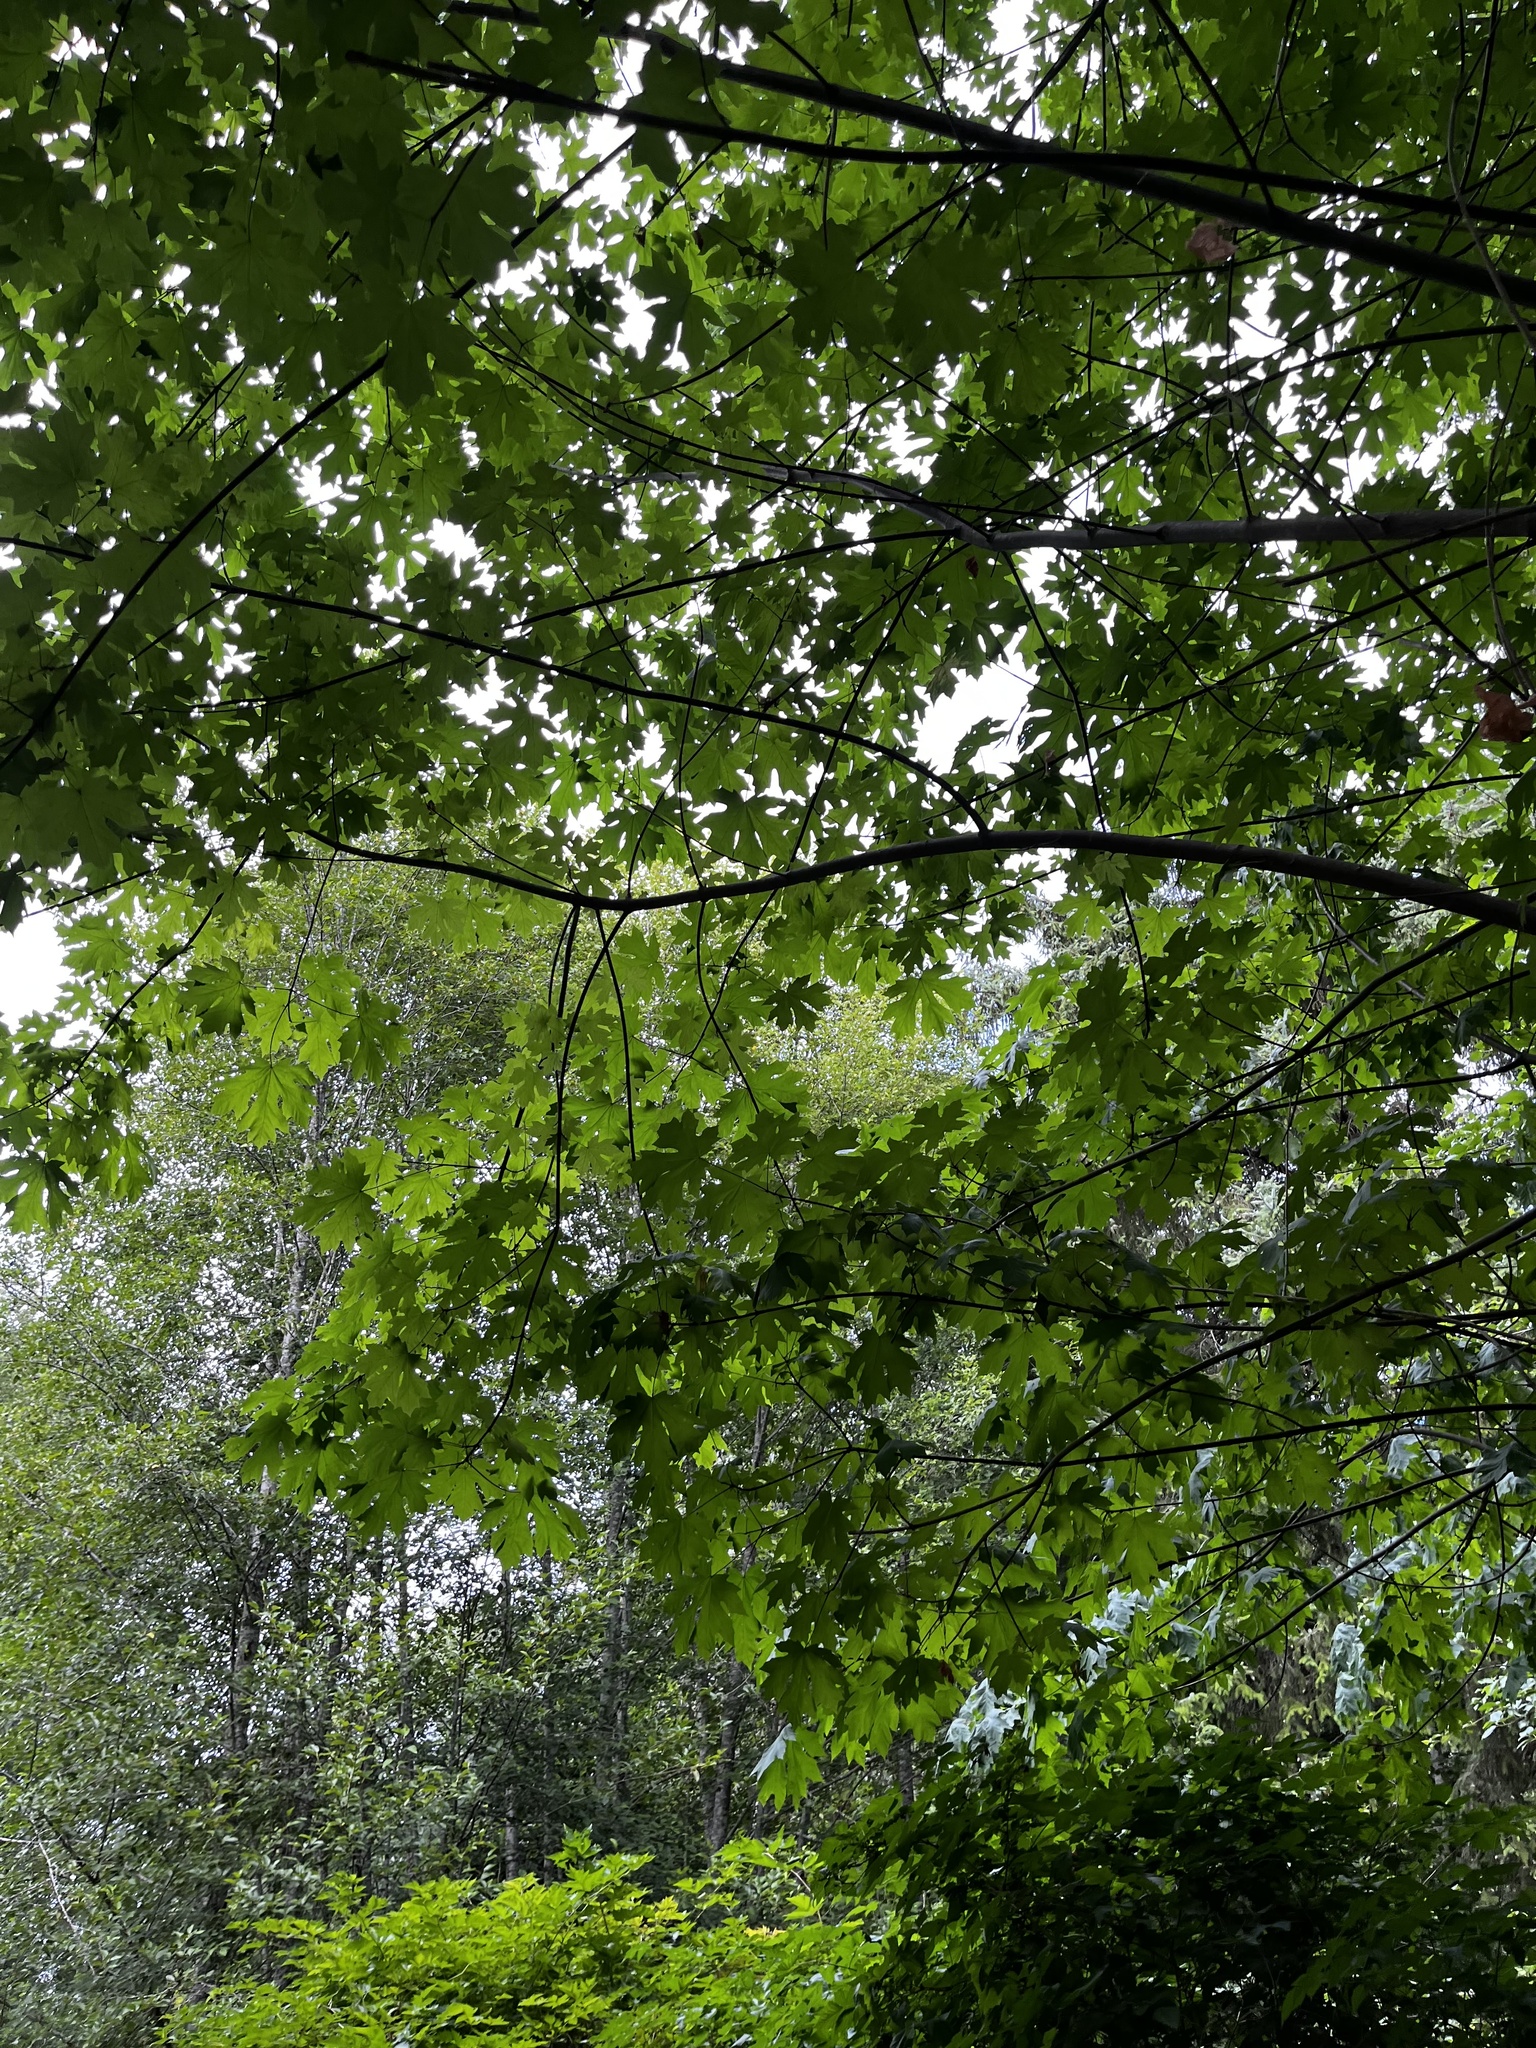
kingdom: Plantae
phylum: Tracheophyta
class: Magnoliopsida
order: Sapindales
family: Sapindaceae
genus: Acer
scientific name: Acer macrophyllum
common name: Oregon maple
